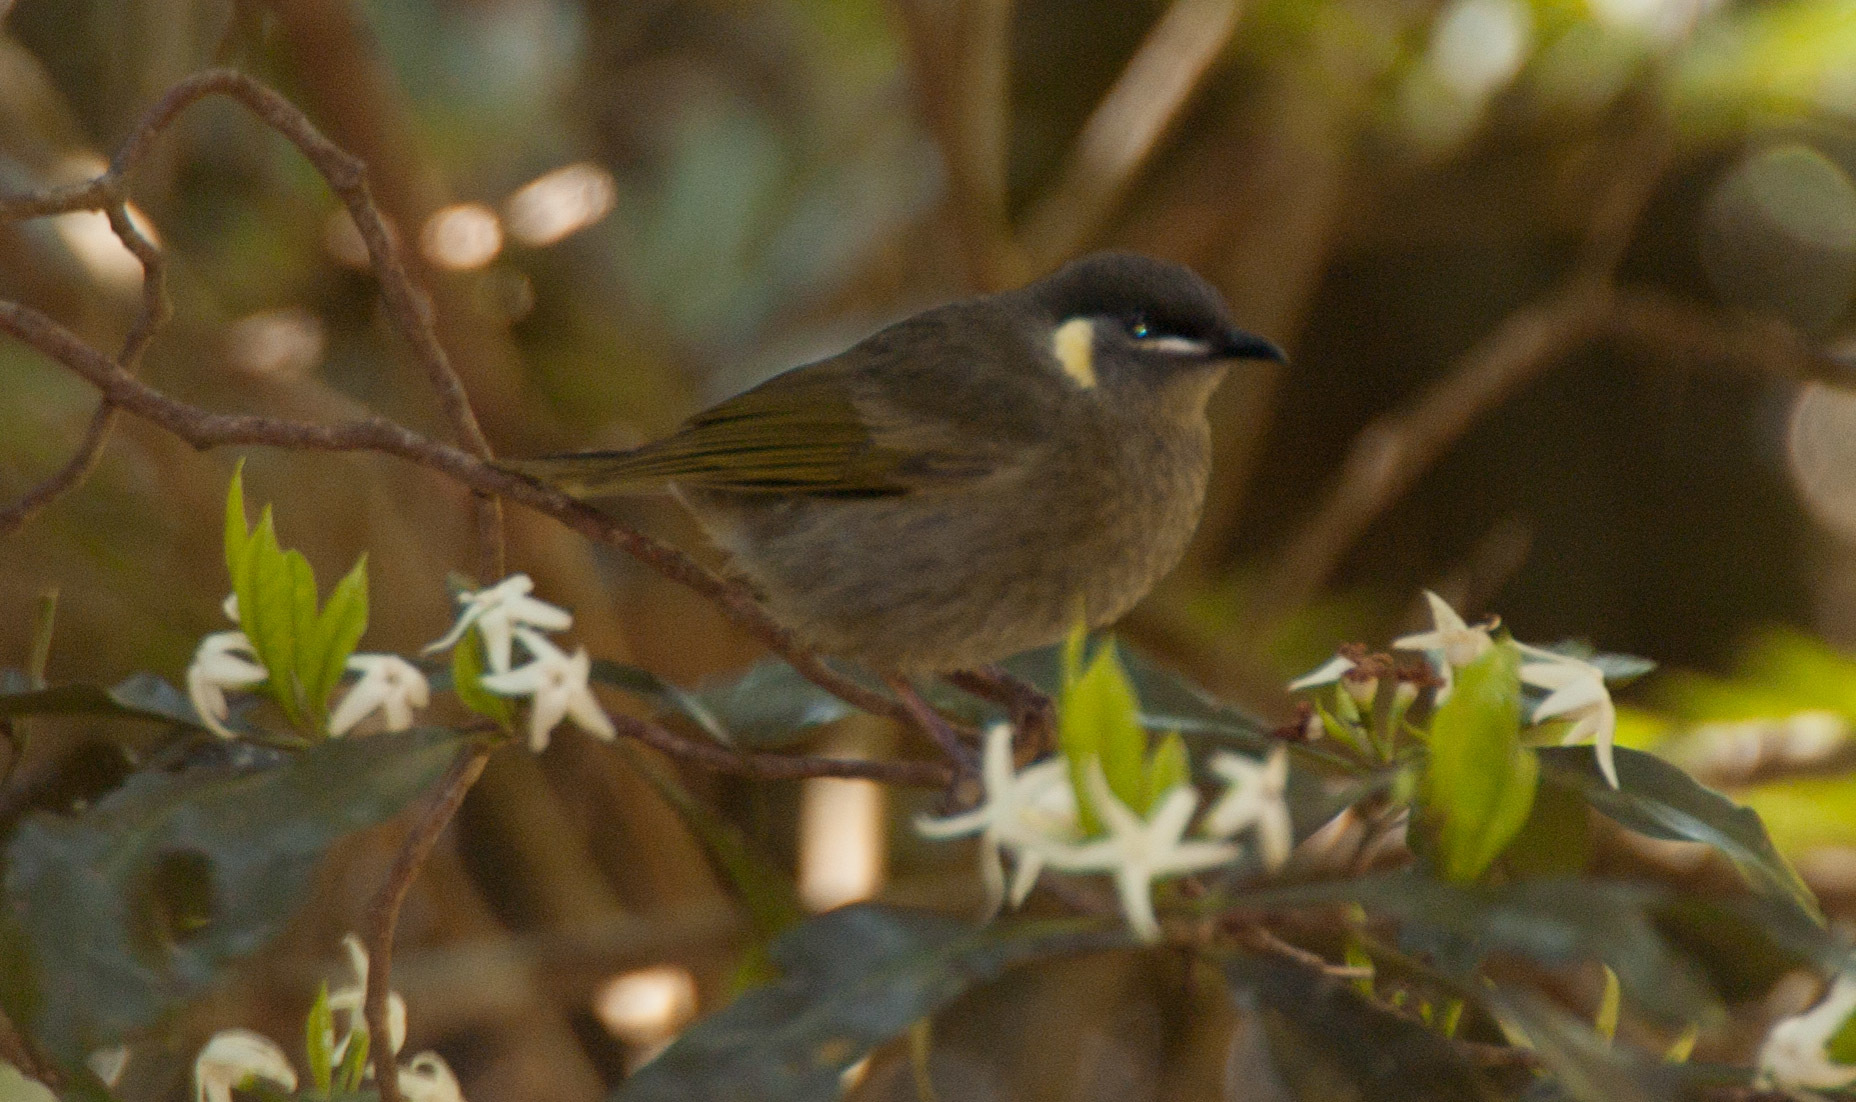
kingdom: Animalia
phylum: Chordata
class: Aves
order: Passeriformes
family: Meliphagidae
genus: Meliphaga
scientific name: Meliphaga lewinii
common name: Lewin's honeyeater
